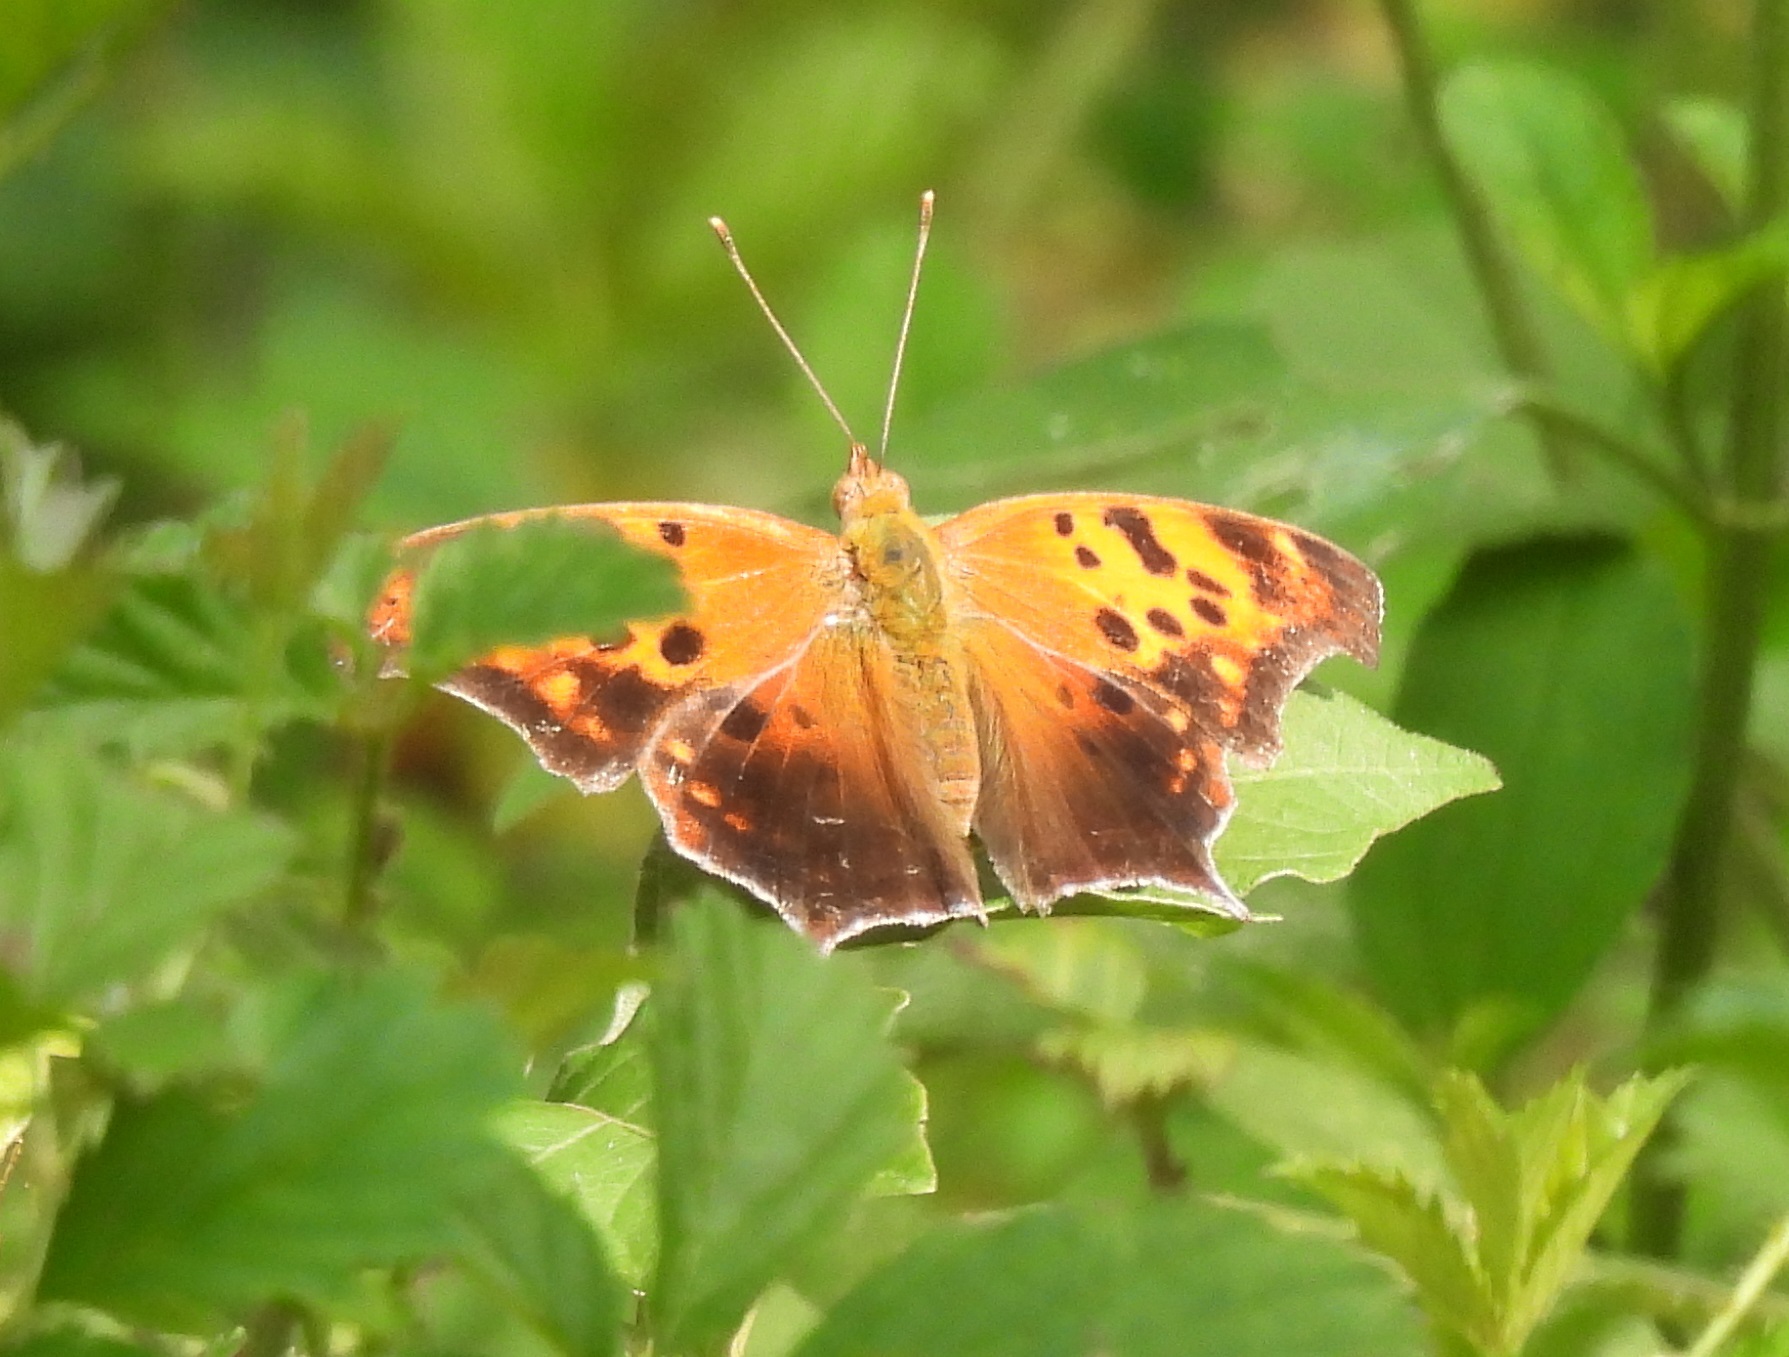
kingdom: Animalia
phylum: Arthropoda
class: Insecta
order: Lepidoptera
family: Nymphalidae
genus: Polygonia
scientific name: Polygonia interrogationis
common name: Question mark
